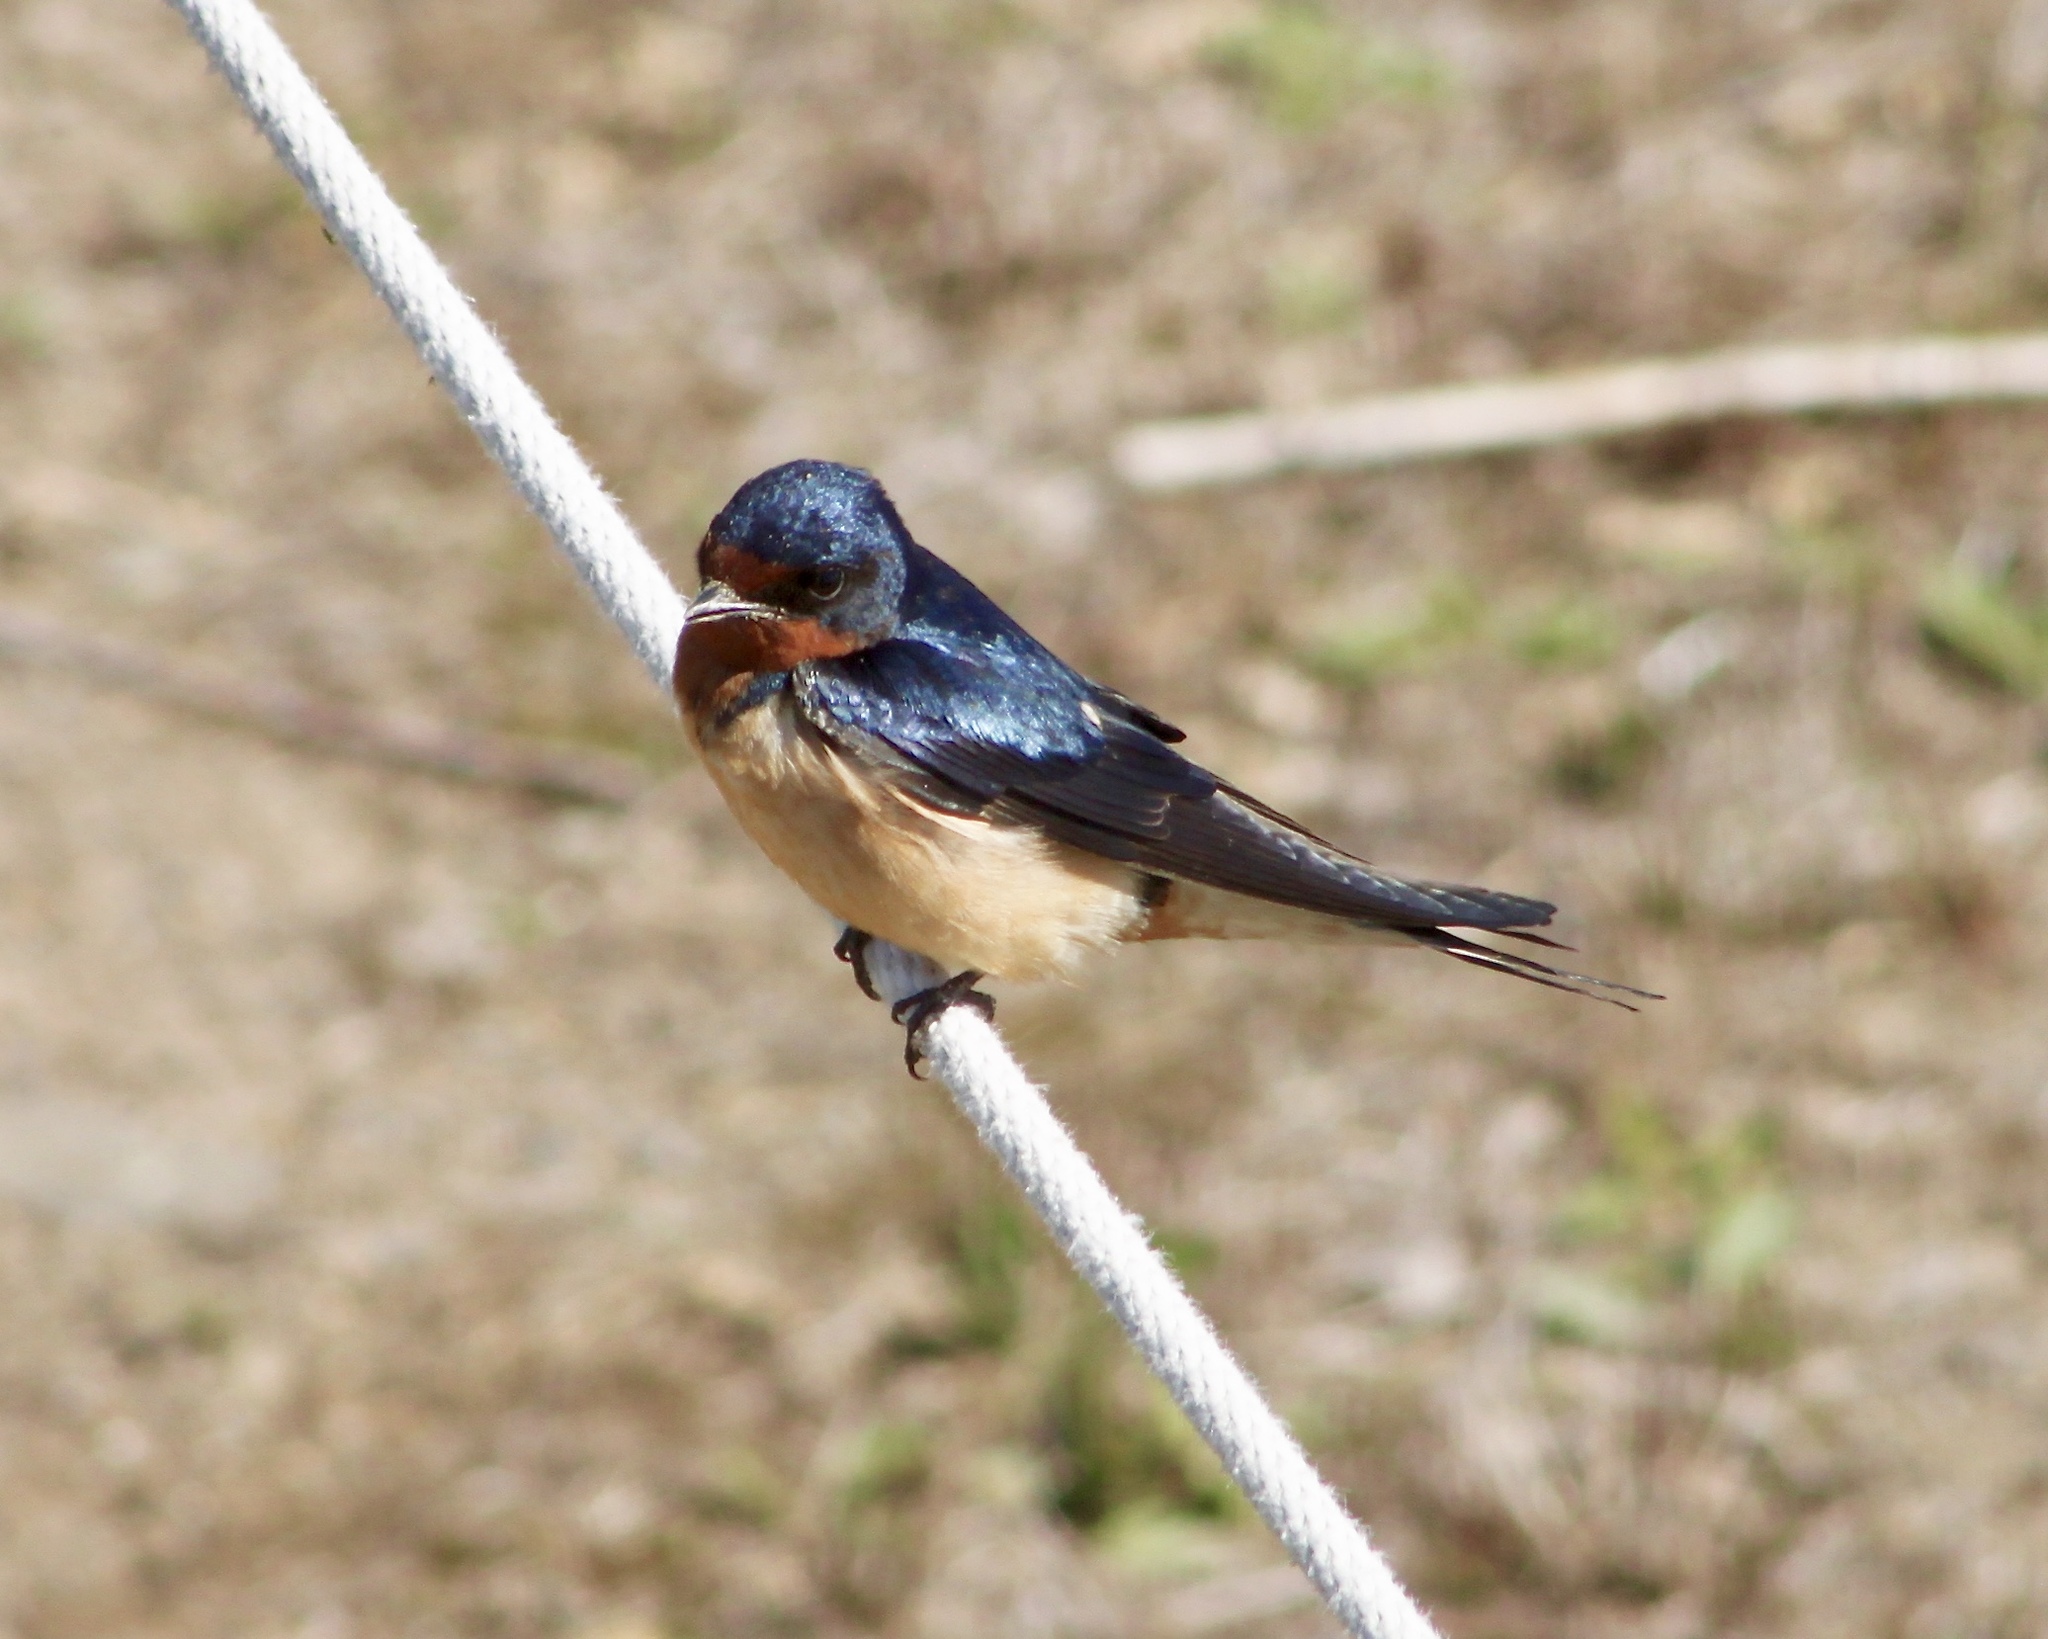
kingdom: Animalia
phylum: Chordata
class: Aves
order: Passeriformes
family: Hirundinidae
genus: Hirundo
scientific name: Hirundo rustica
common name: Barn swallow
